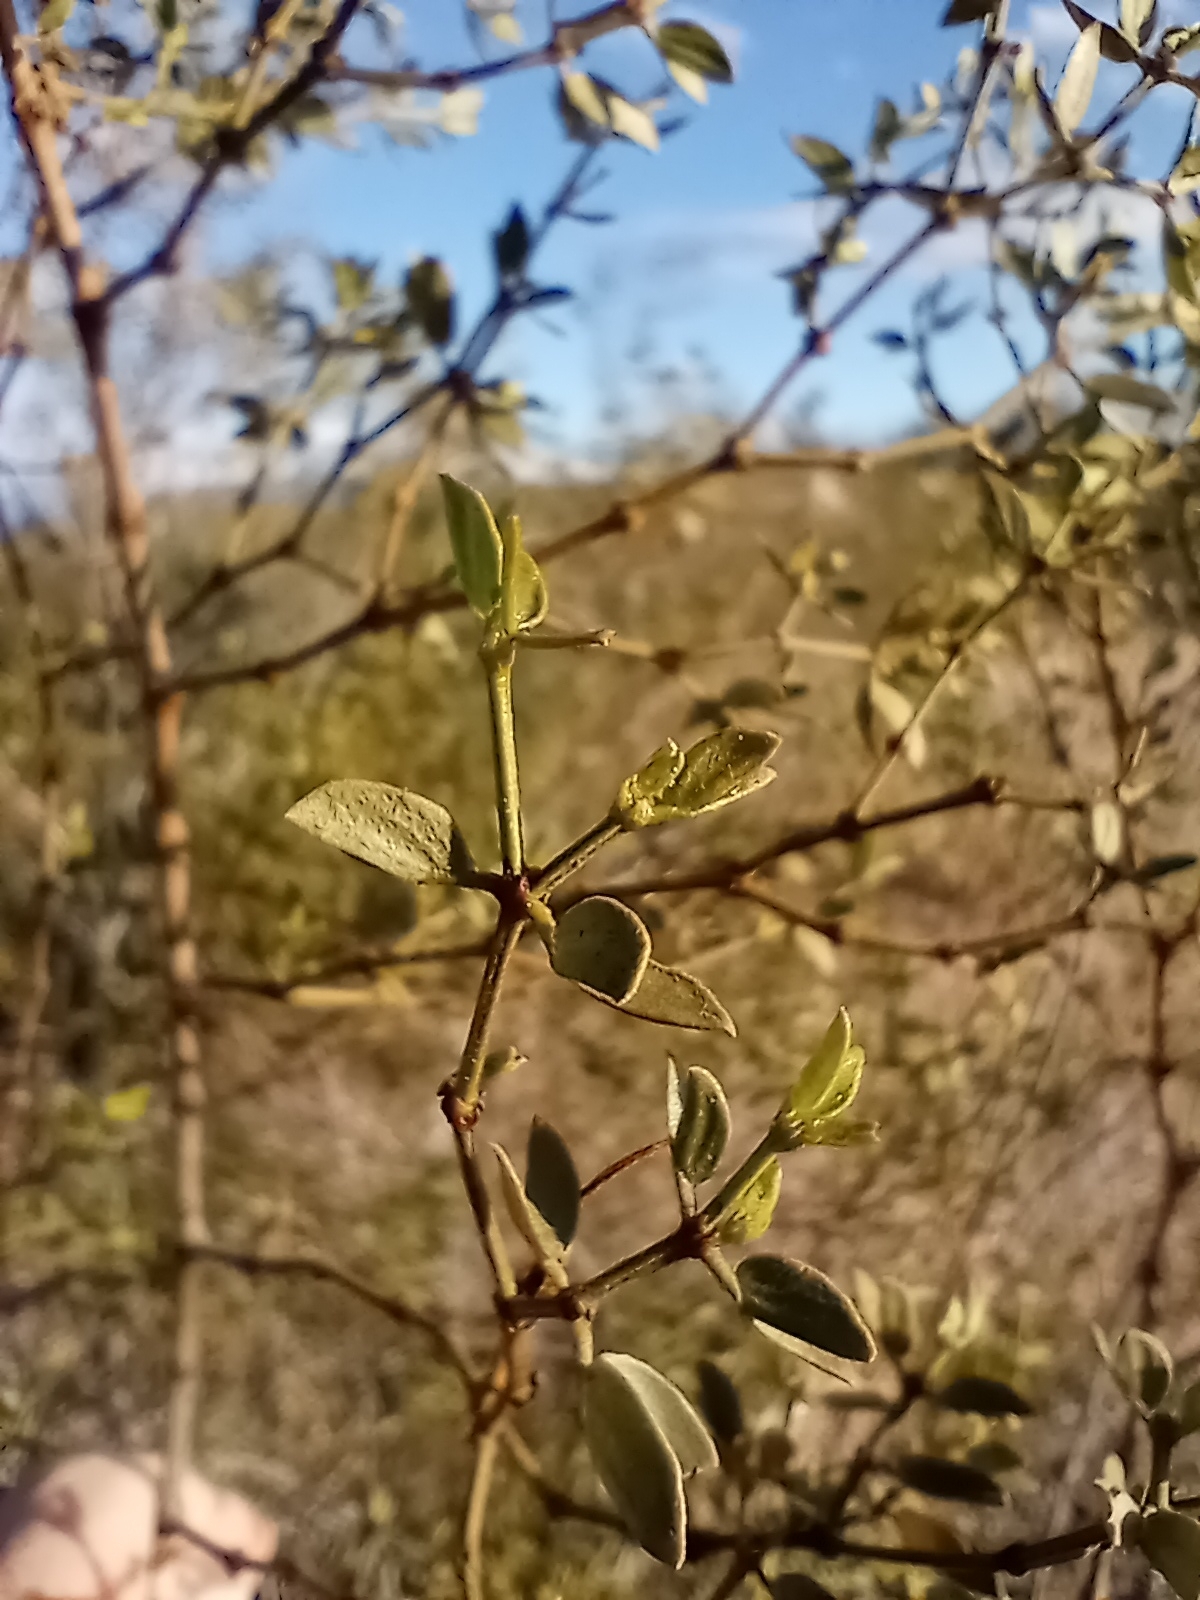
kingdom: Plantae
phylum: Tracheophyta
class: Magnoliopsida
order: Zygophyllales
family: Zygophyllaceae
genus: Larrea
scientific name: Larrea tridentata
